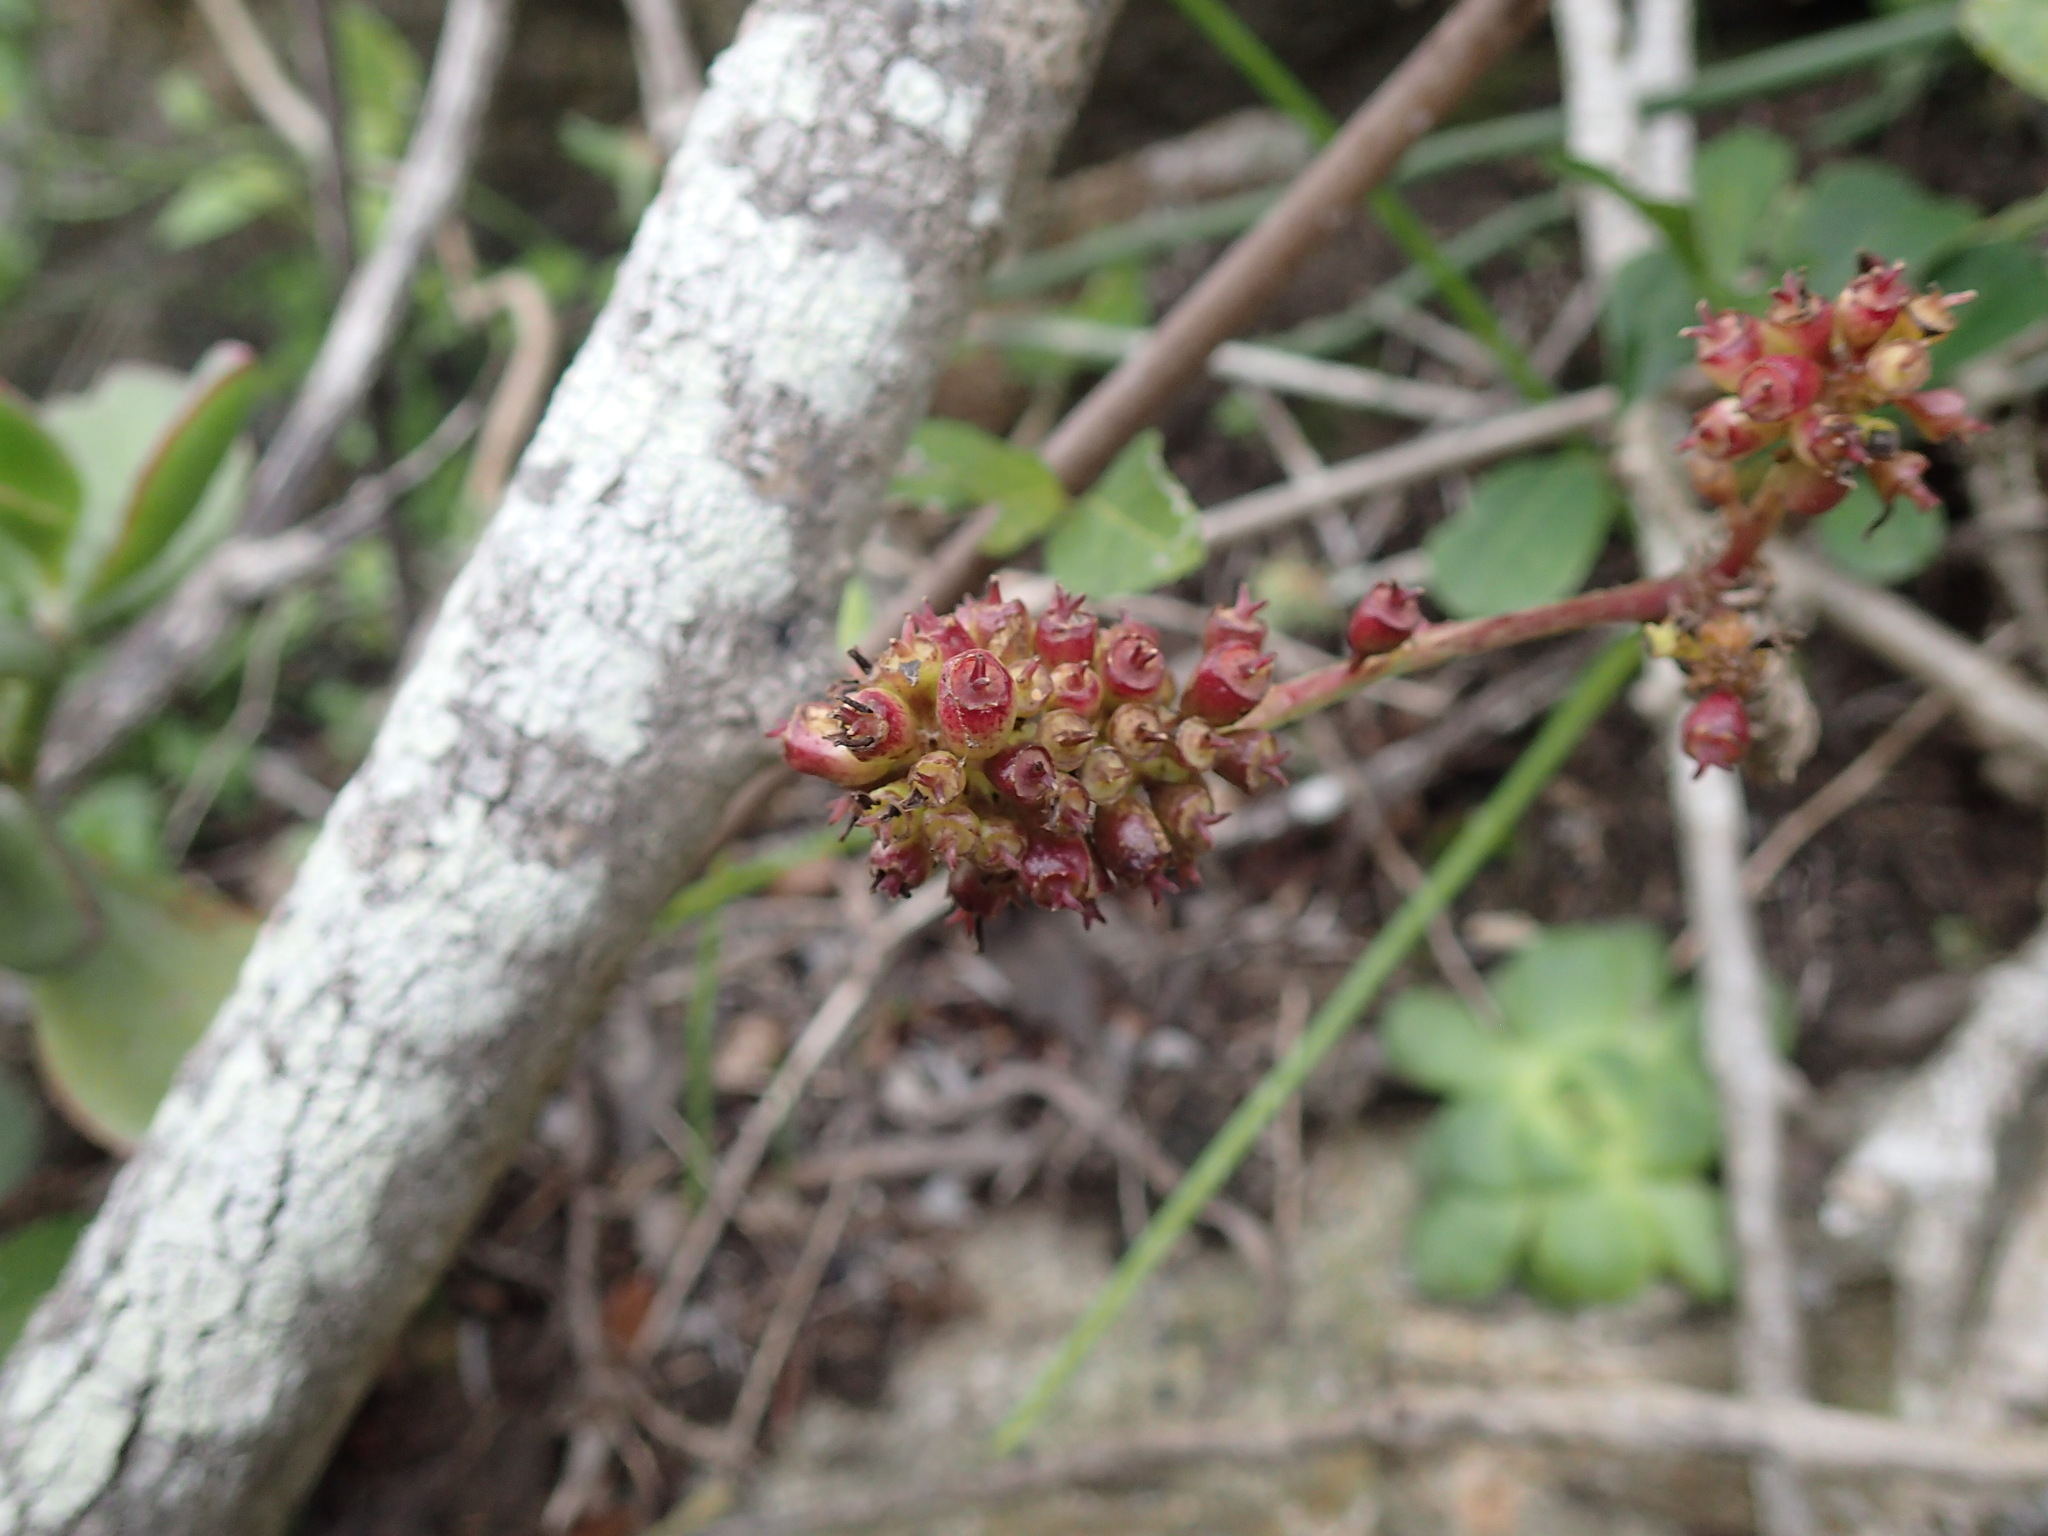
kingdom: Plantae
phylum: Tracheophyta
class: Magnoliopsida
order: Apiales
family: Araliaceae
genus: Cussonia
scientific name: Cussonia thyrsiflora
